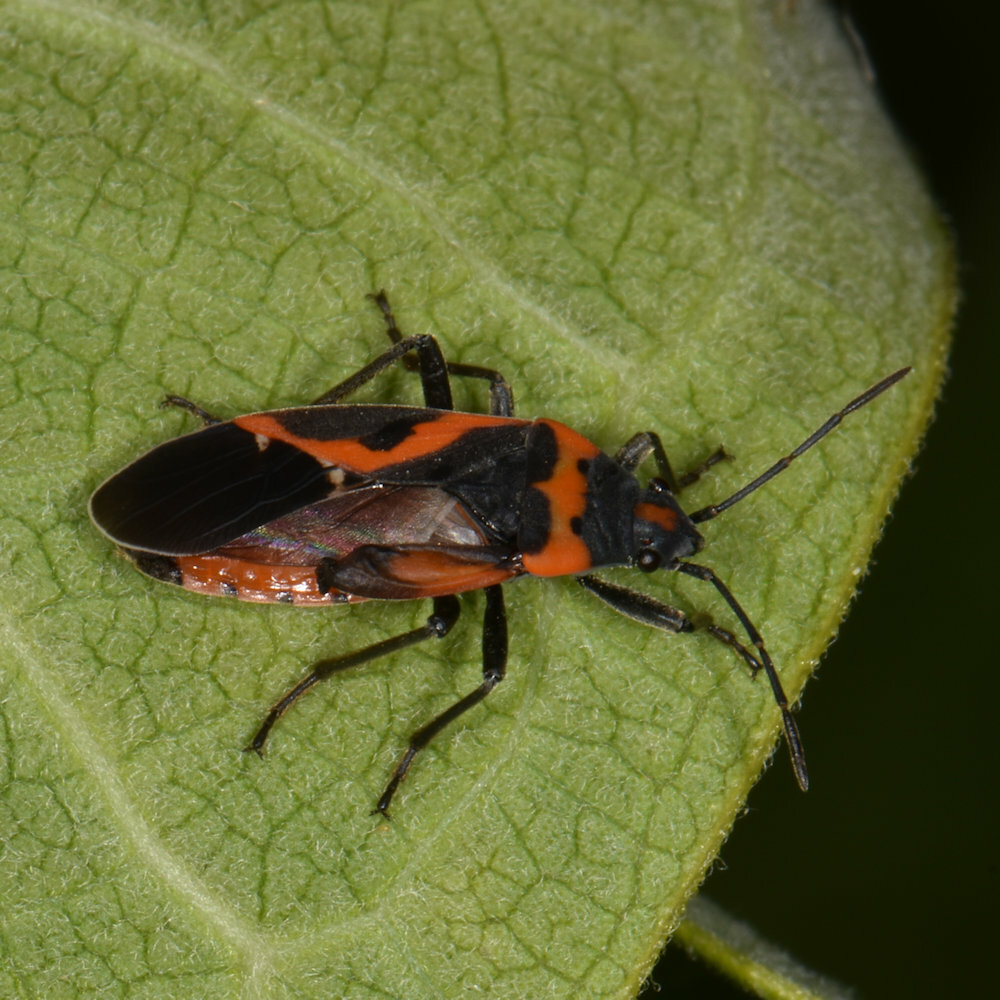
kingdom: Animalia
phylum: Arthropoda
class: Insecta
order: Hemiptera
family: Lygaeidae
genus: Lygaeus
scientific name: Lygaeus kalmii
